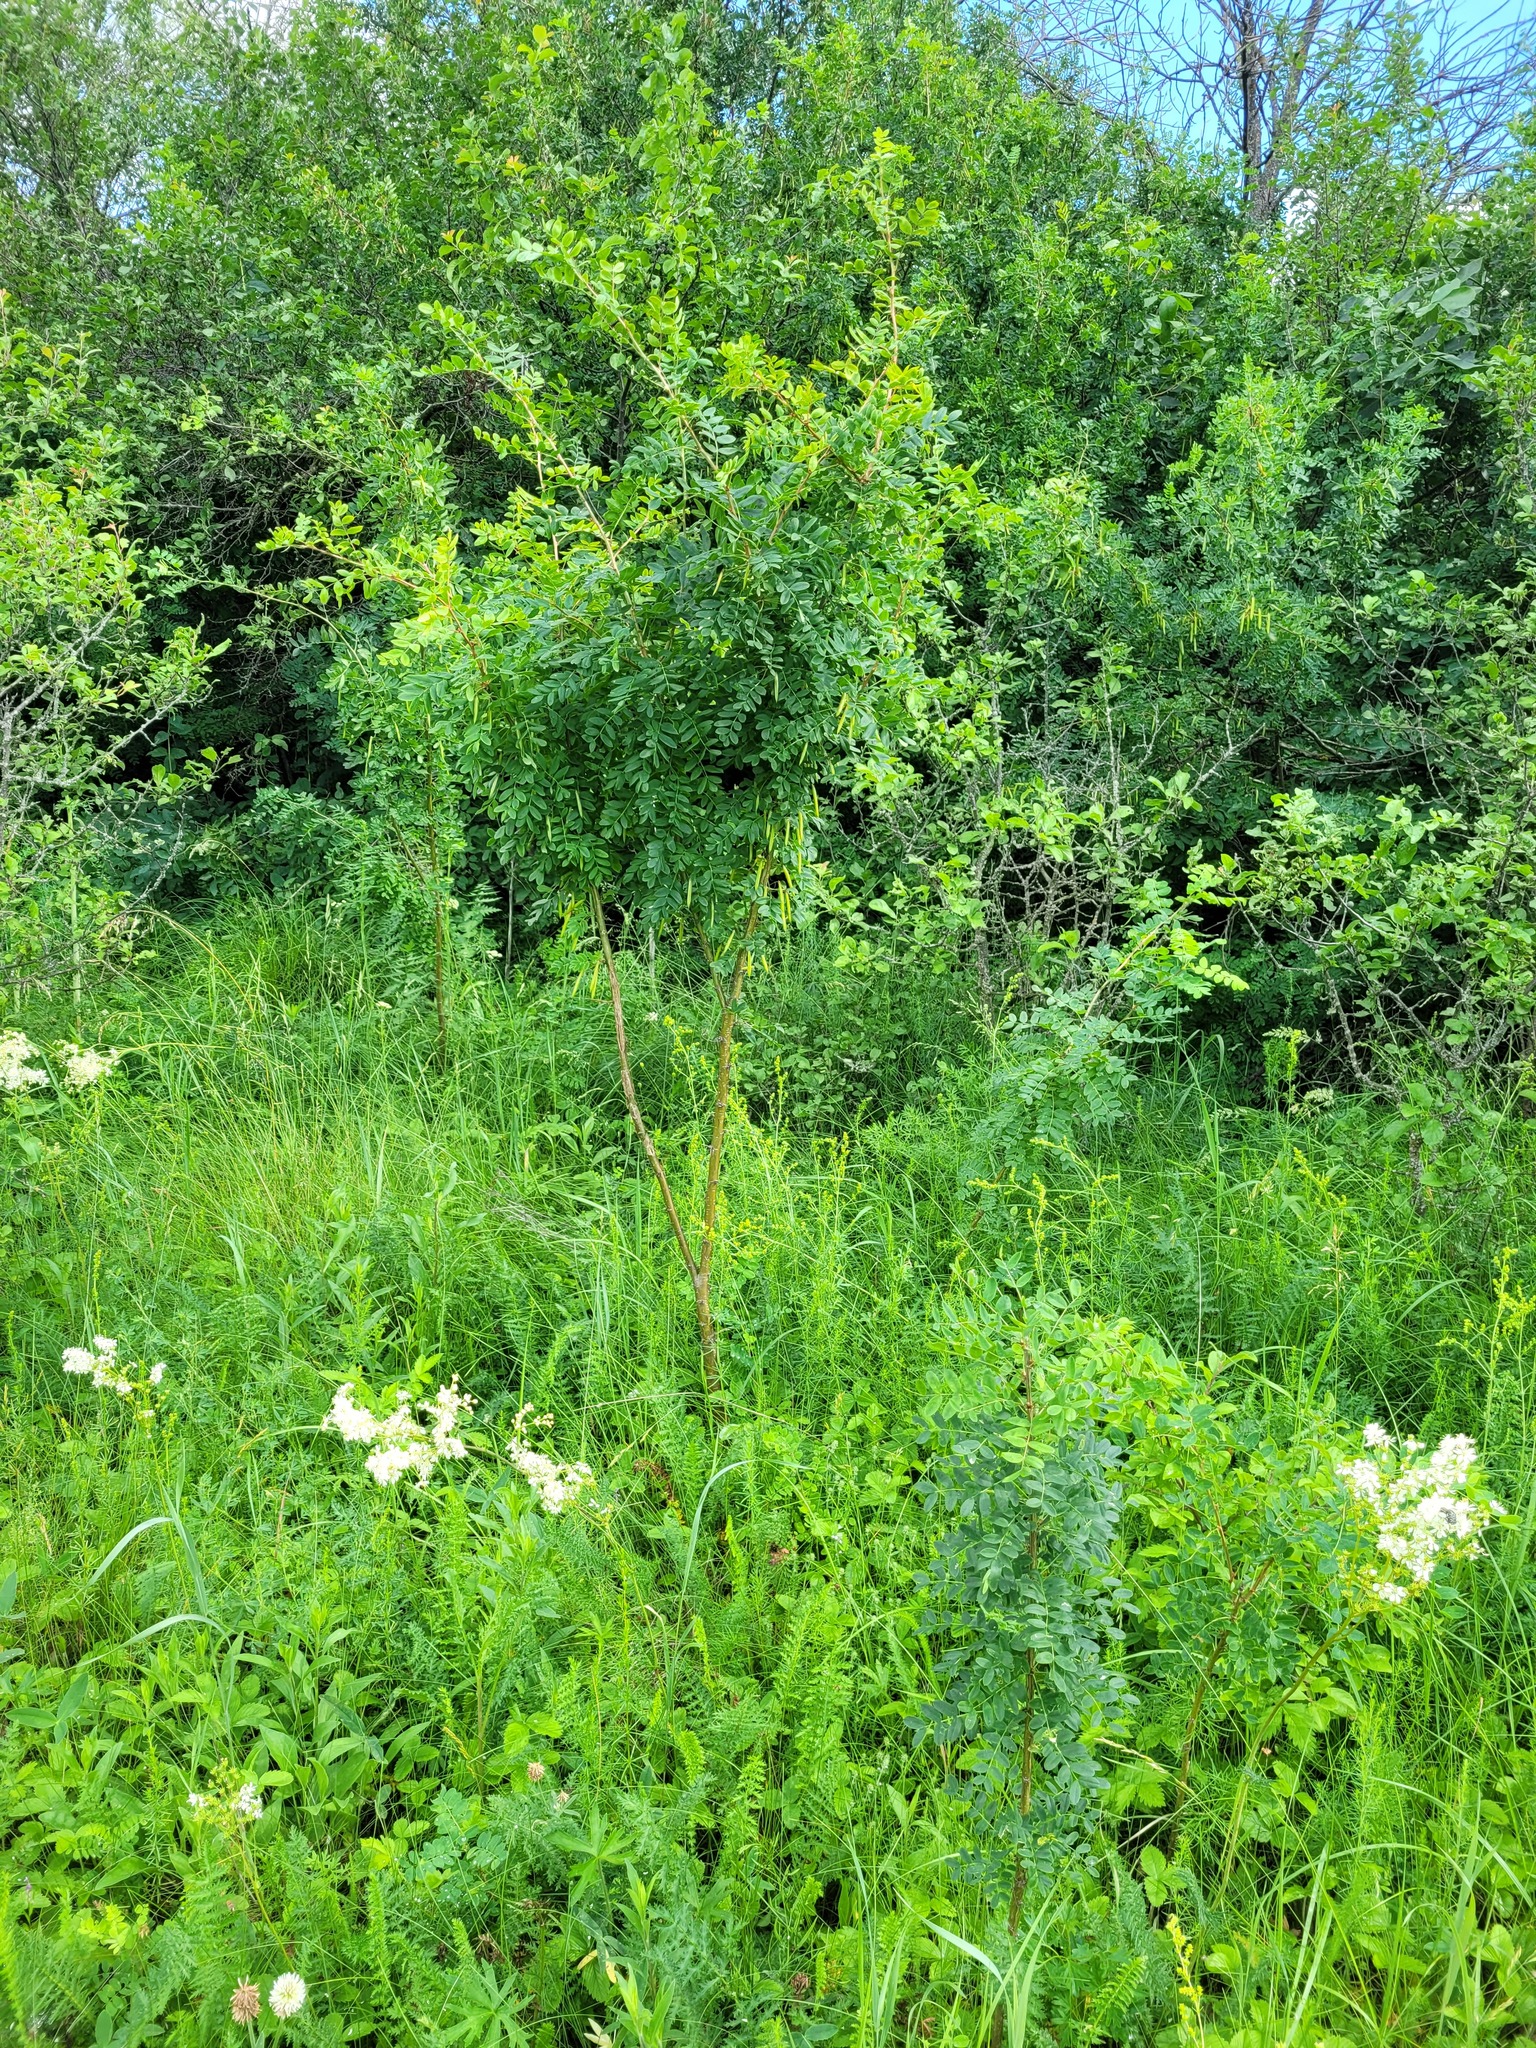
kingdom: Plantae
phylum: Tracheophyta
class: Magnoliopsida
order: Fabales
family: Fabaceae
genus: Caragana
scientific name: Caragana arborescens
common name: Siberian peashrub
